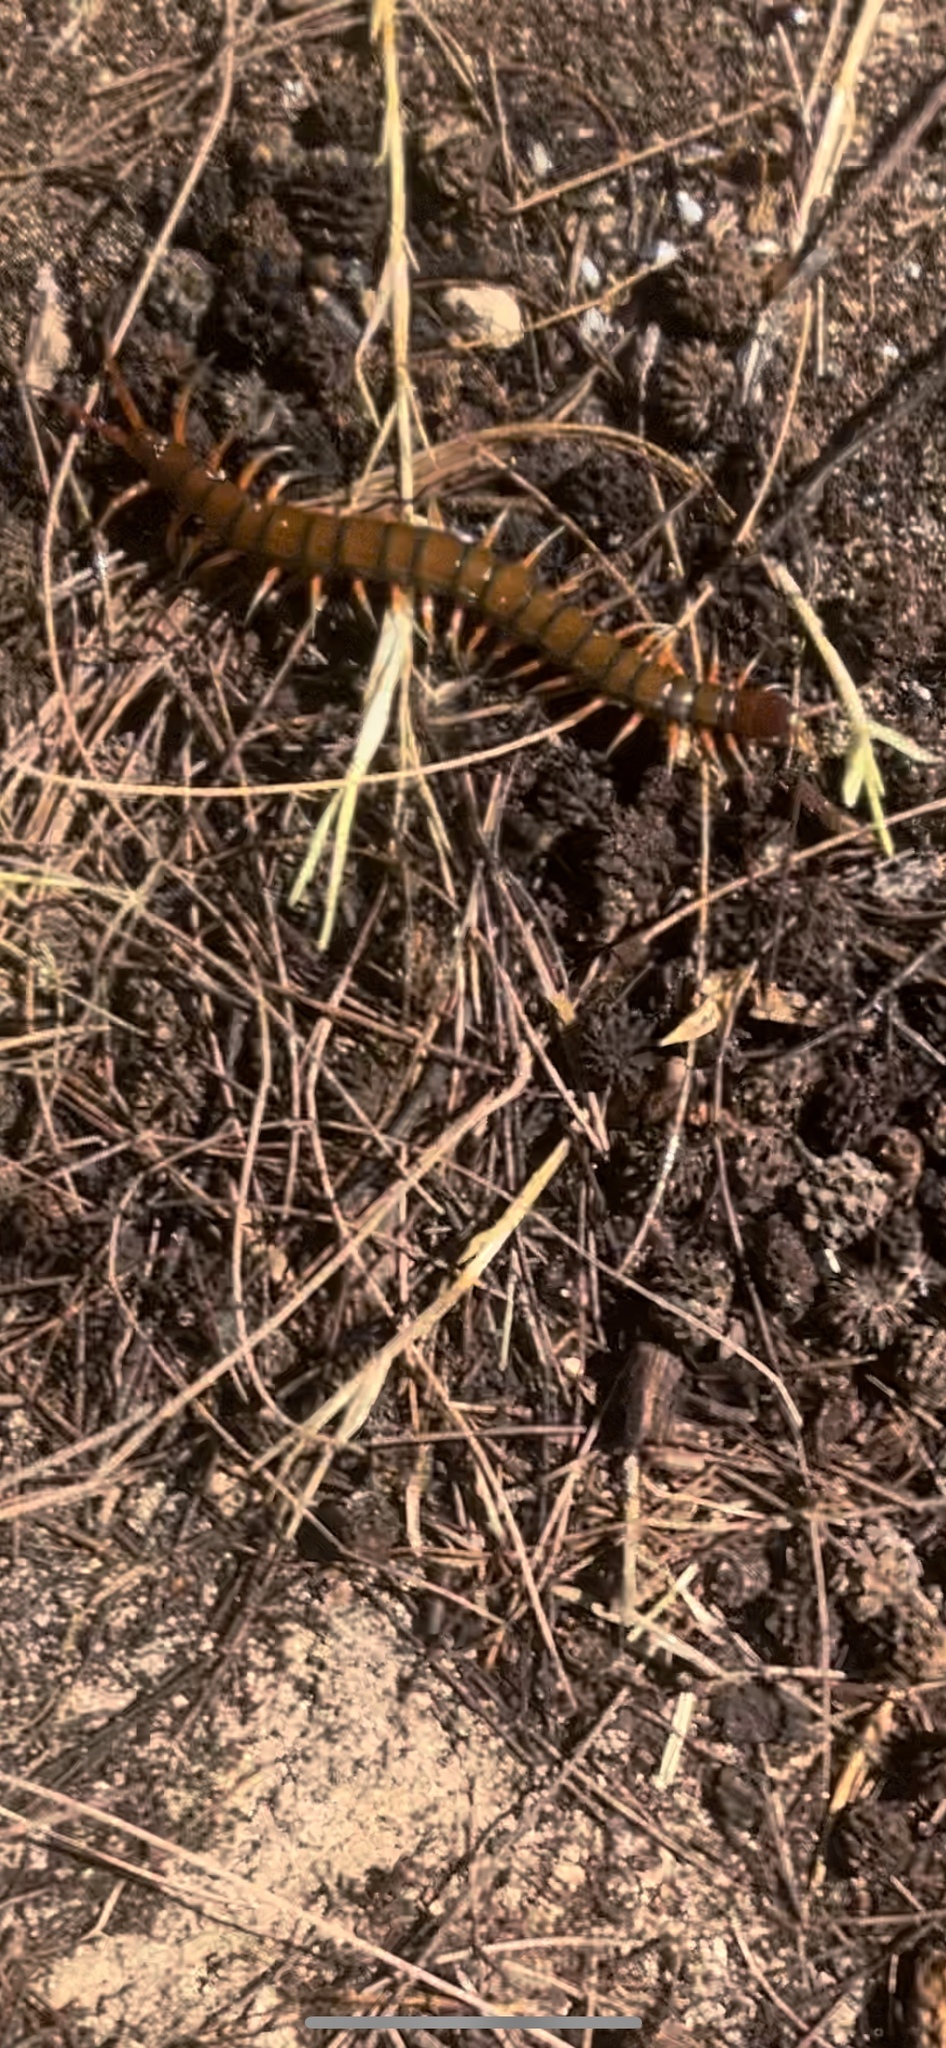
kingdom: Animalia
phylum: Arthropoda
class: Chilopoda
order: Scolopendromorpha
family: Scolopendridae
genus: Scolopendra
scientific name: Scolopendra subspinipes
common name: Centipede
